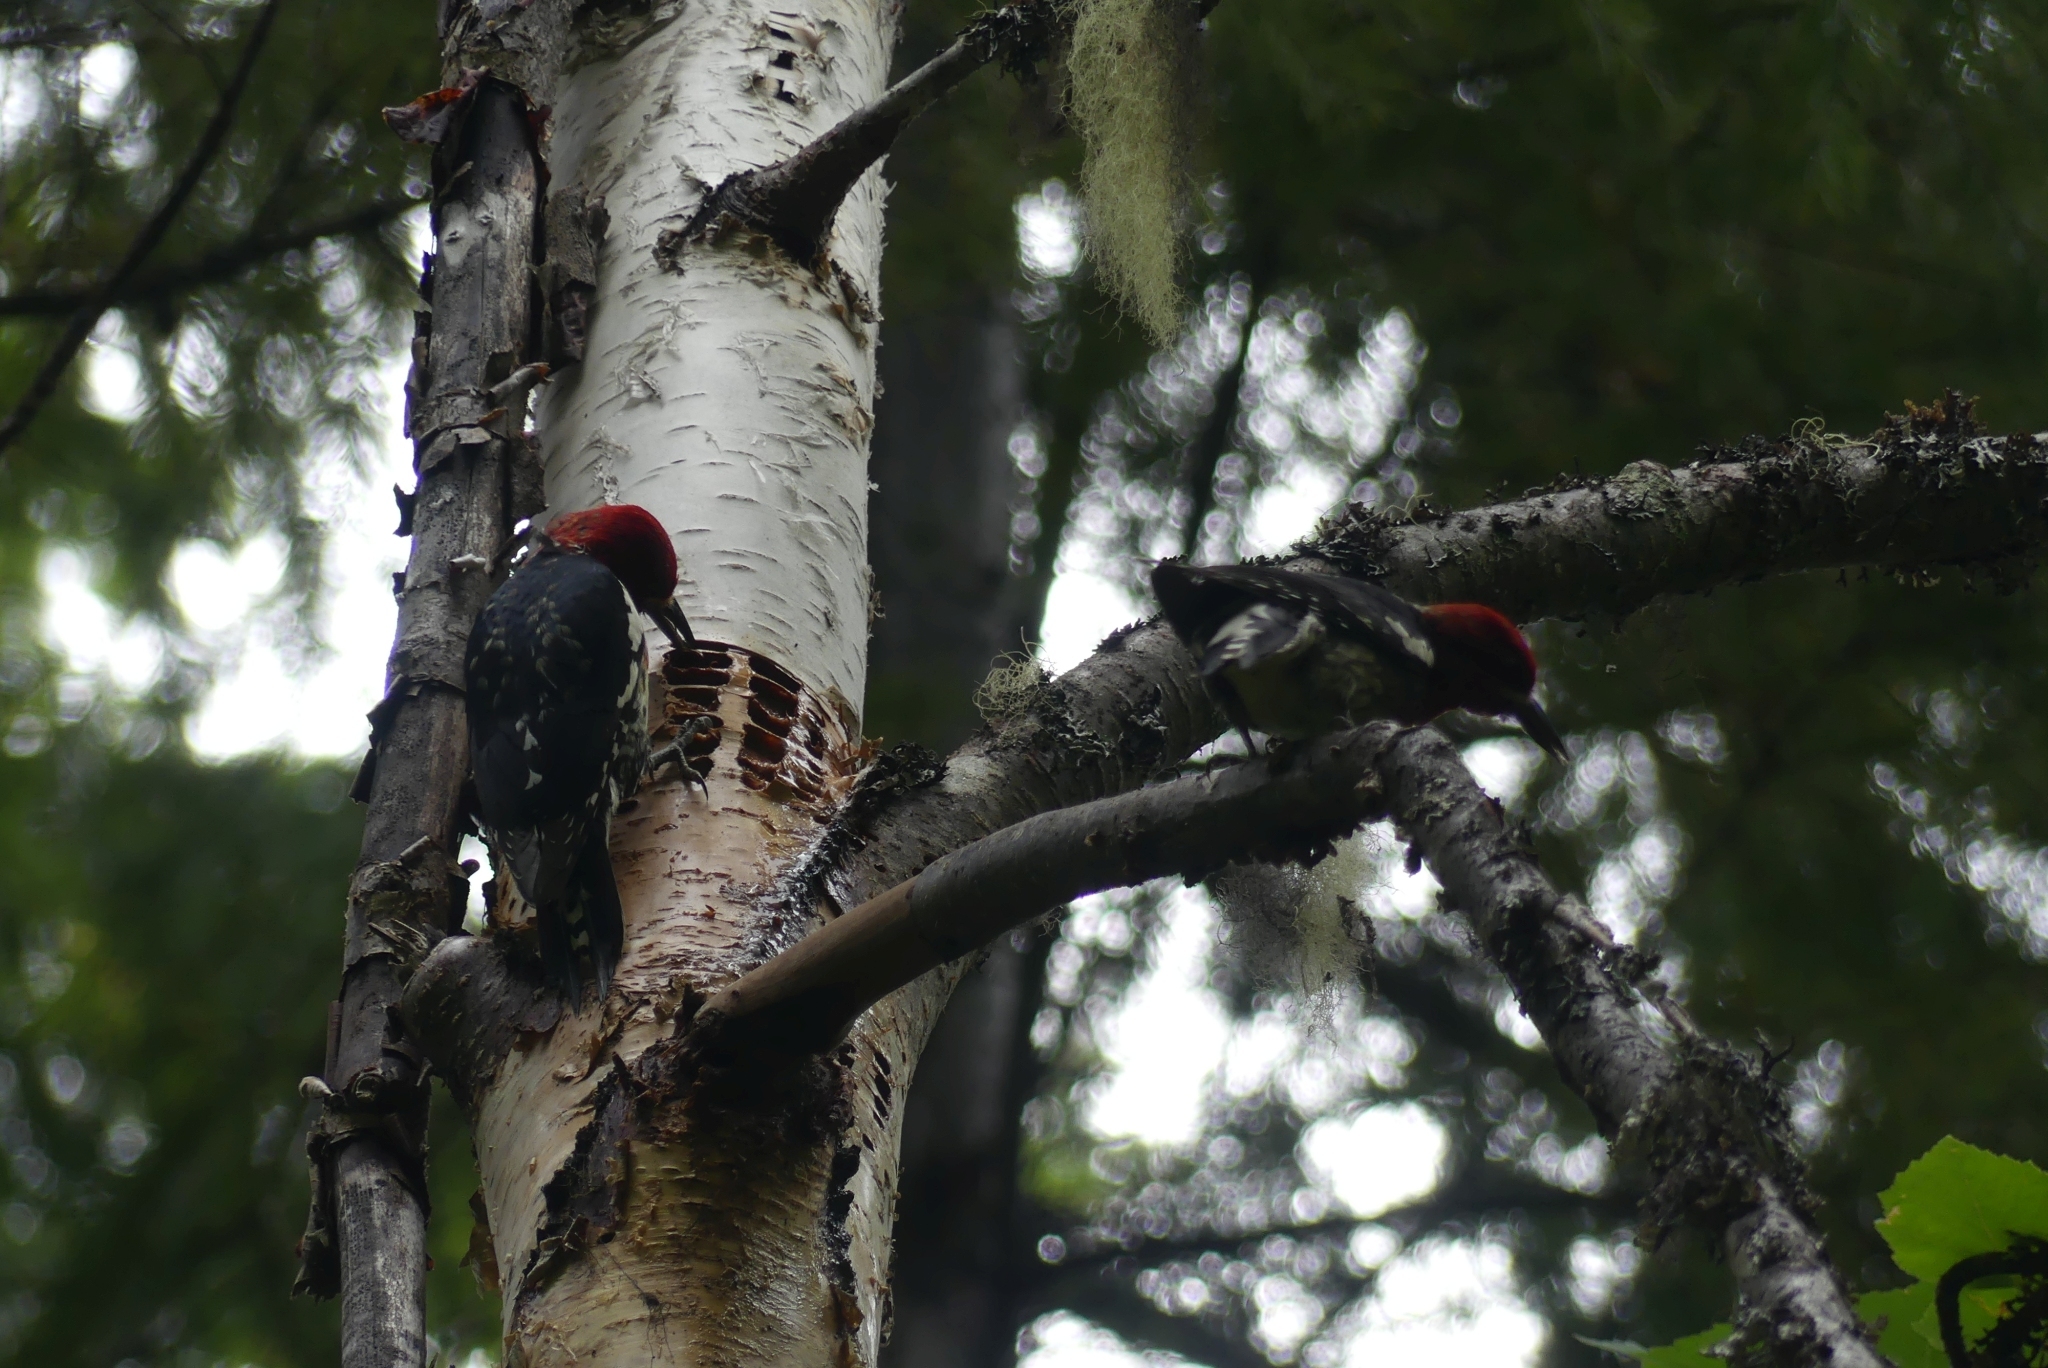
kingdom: Animalia
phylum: Chordata
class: Aves
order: Piciformes
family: Picidae
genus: Sphyrapicus
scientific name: Sphyrapicus ruber
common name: Red-breasted sapsucker
